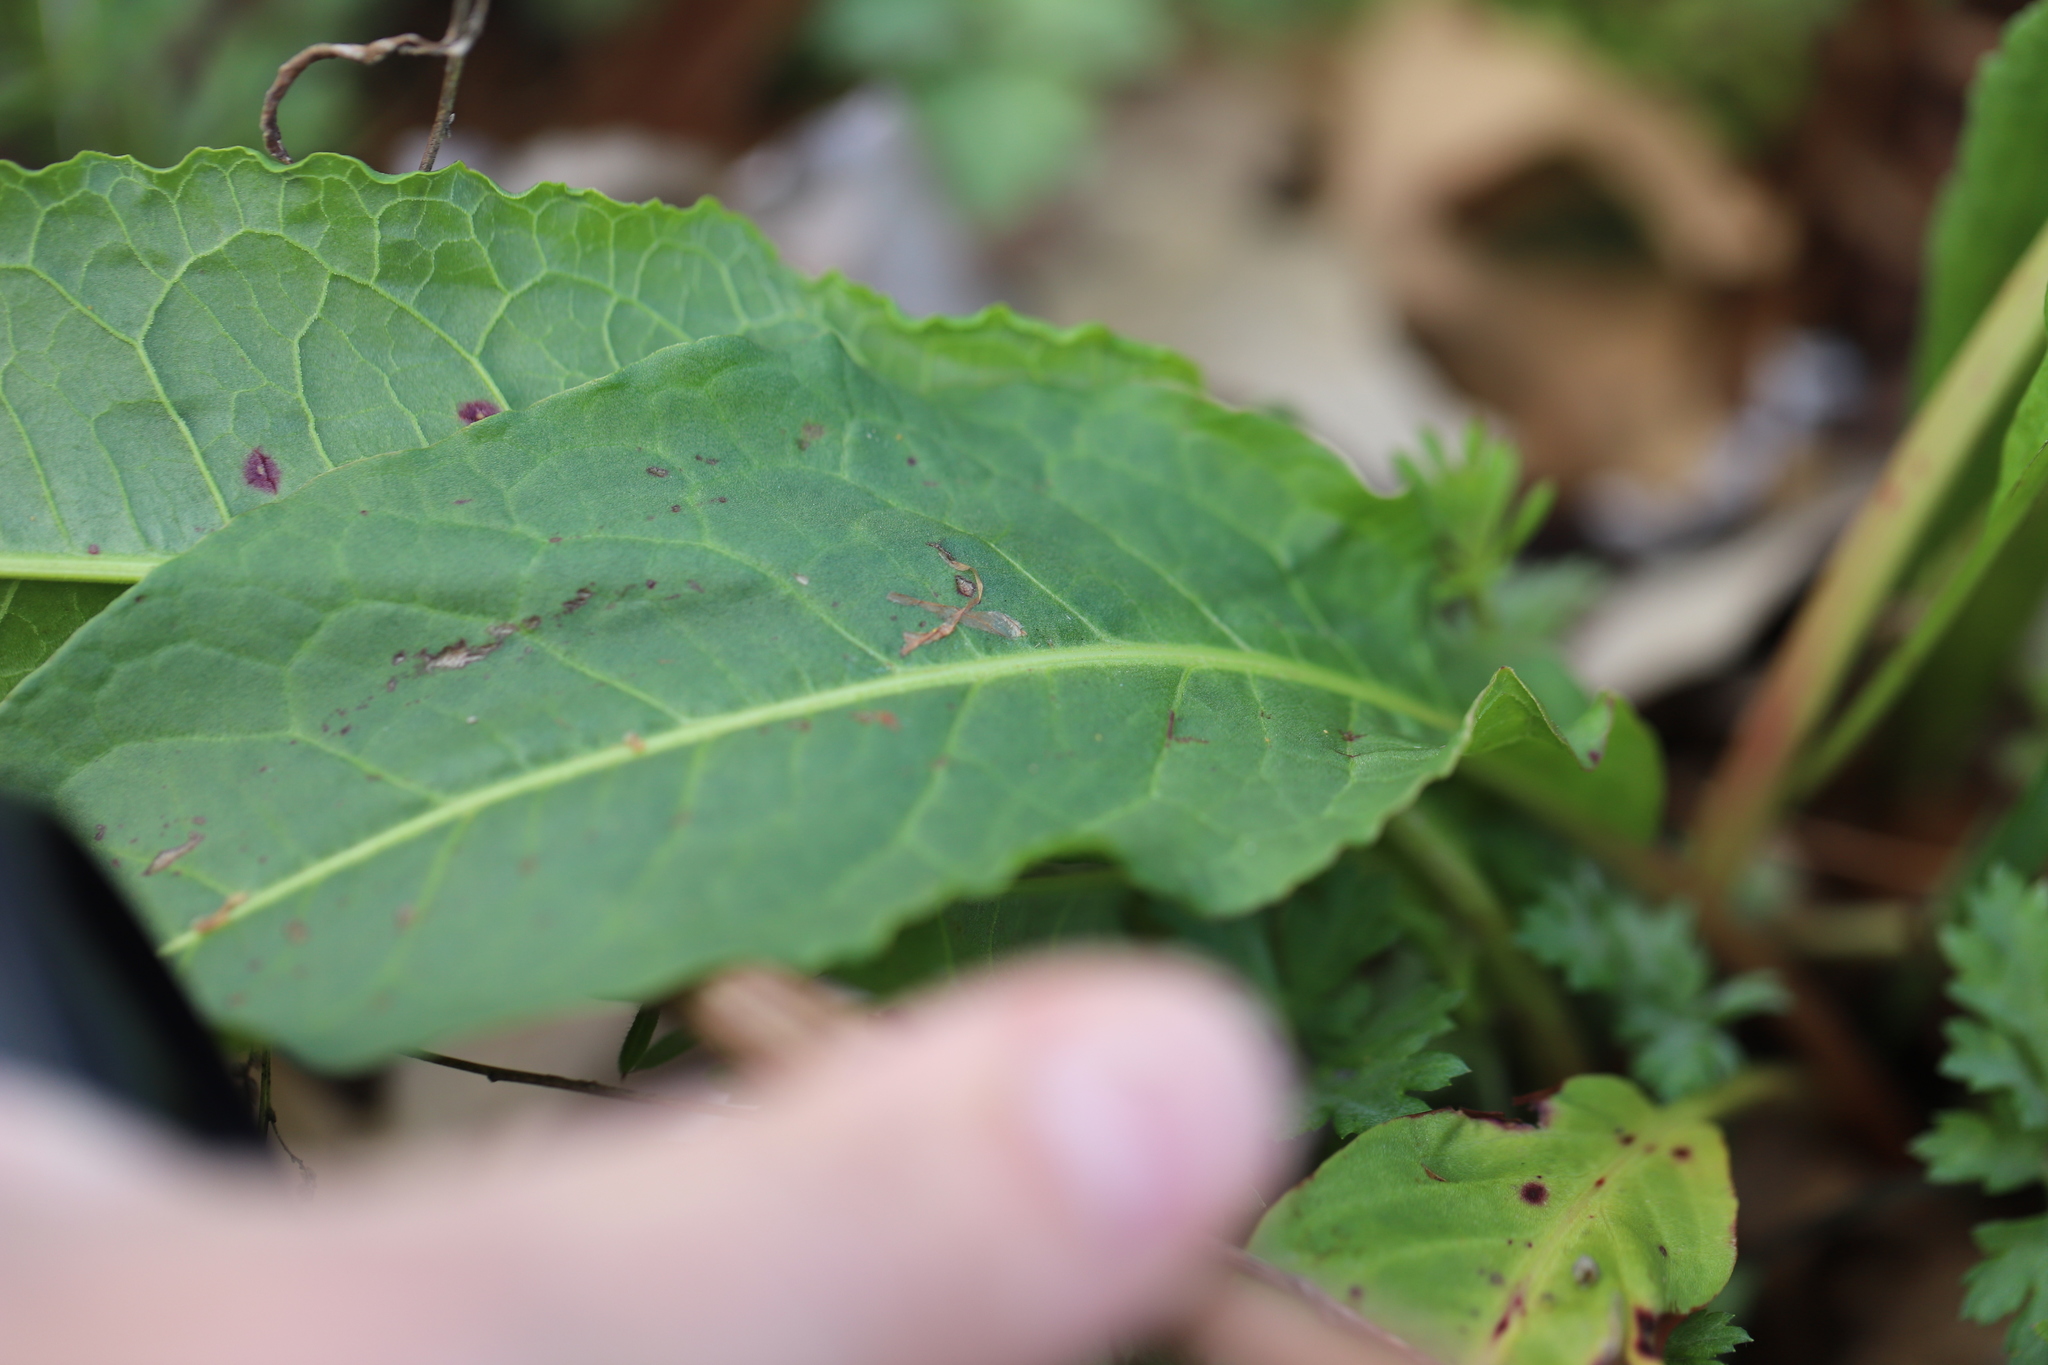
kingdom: Fungi
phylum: Ascomycota
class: Dothideomycetes
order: Mycosphaerellales
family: Mycosphaerellaceae
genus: Ramularia
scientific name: Ramularia rubella
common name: Red dock spot
